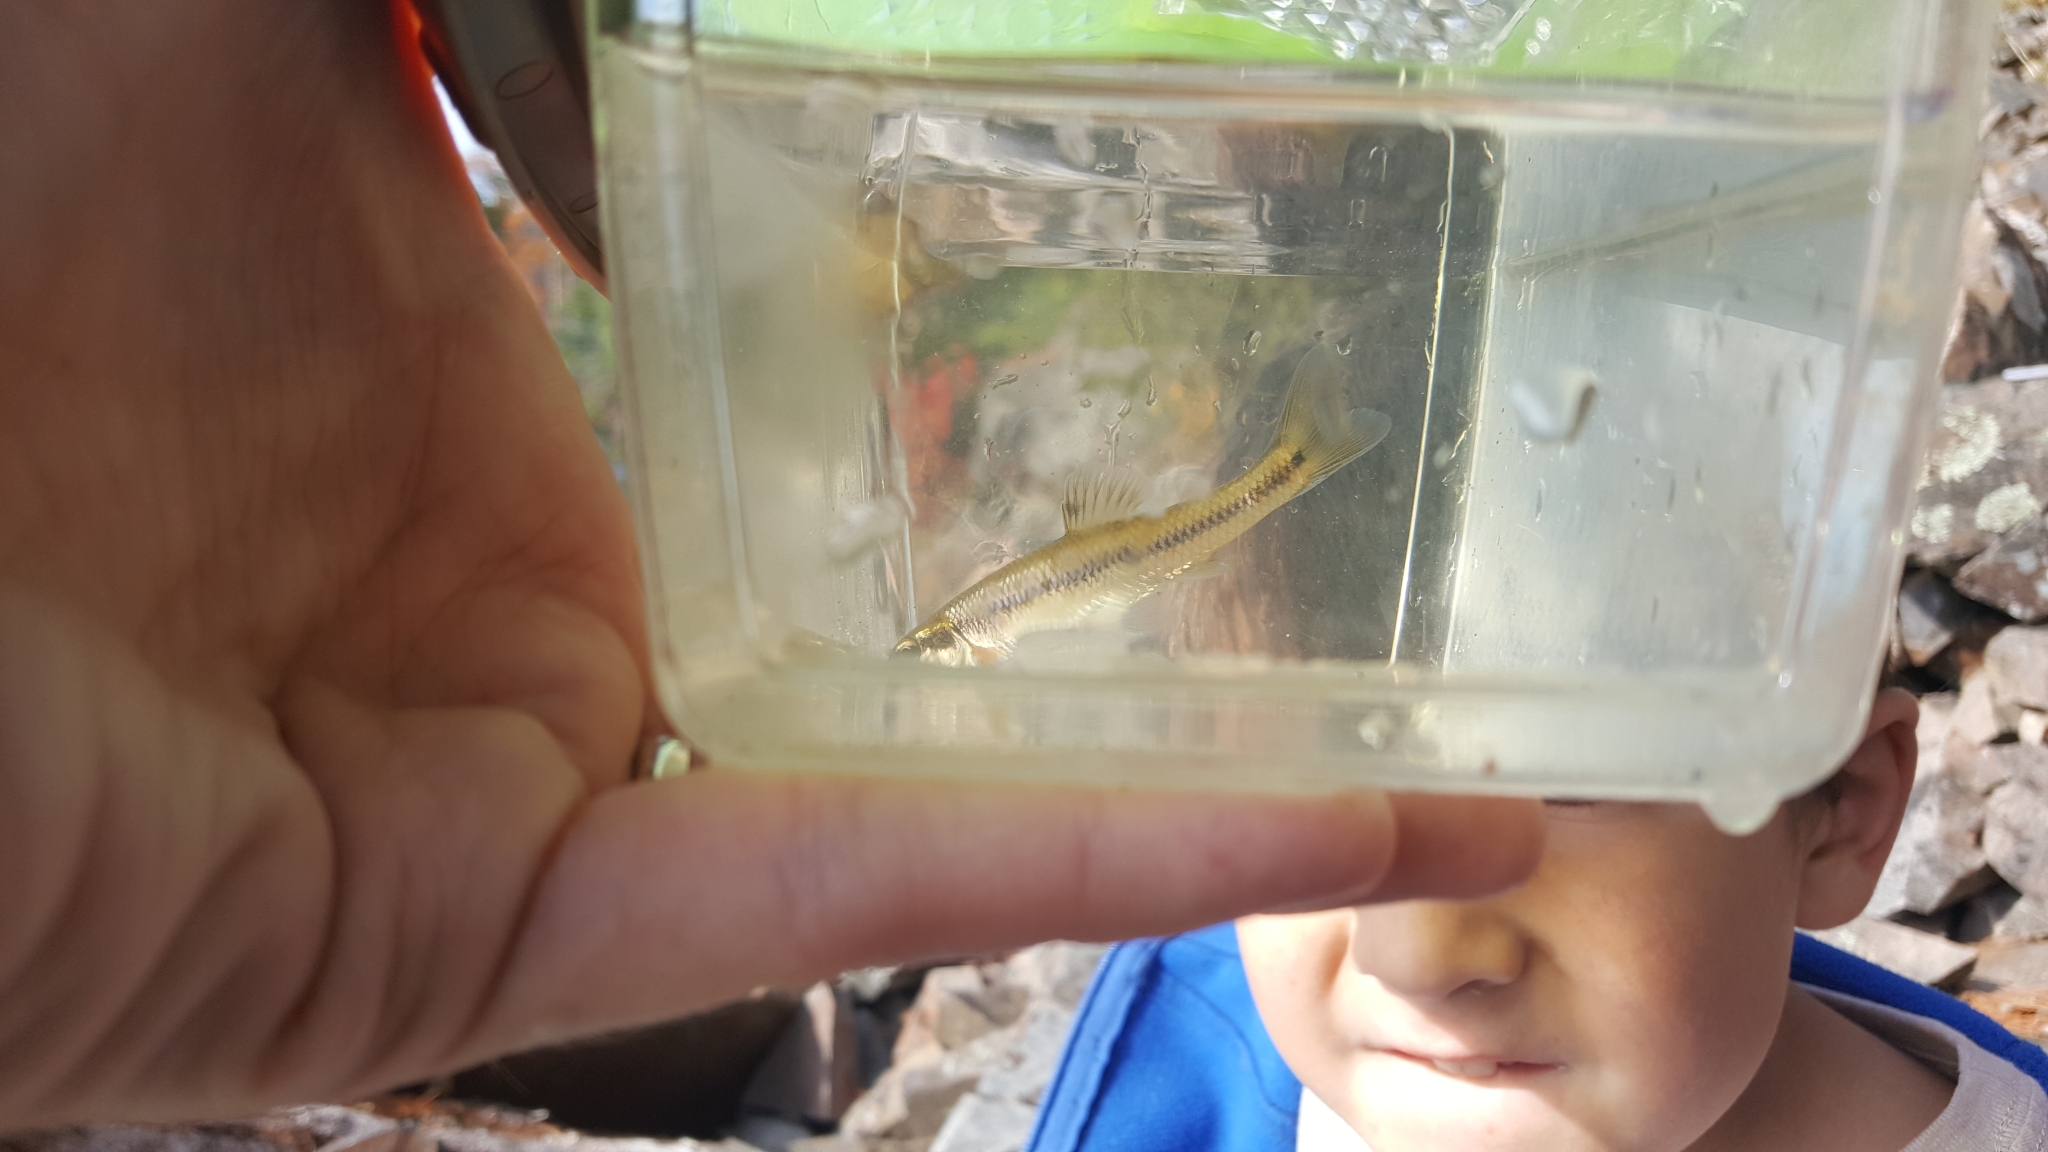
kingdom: Animalia
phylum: Chordata
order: Cypriniformes
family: Cyprinidae
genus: Pimephales
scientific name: Pimephales notatus
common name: Bluntnose minnow
